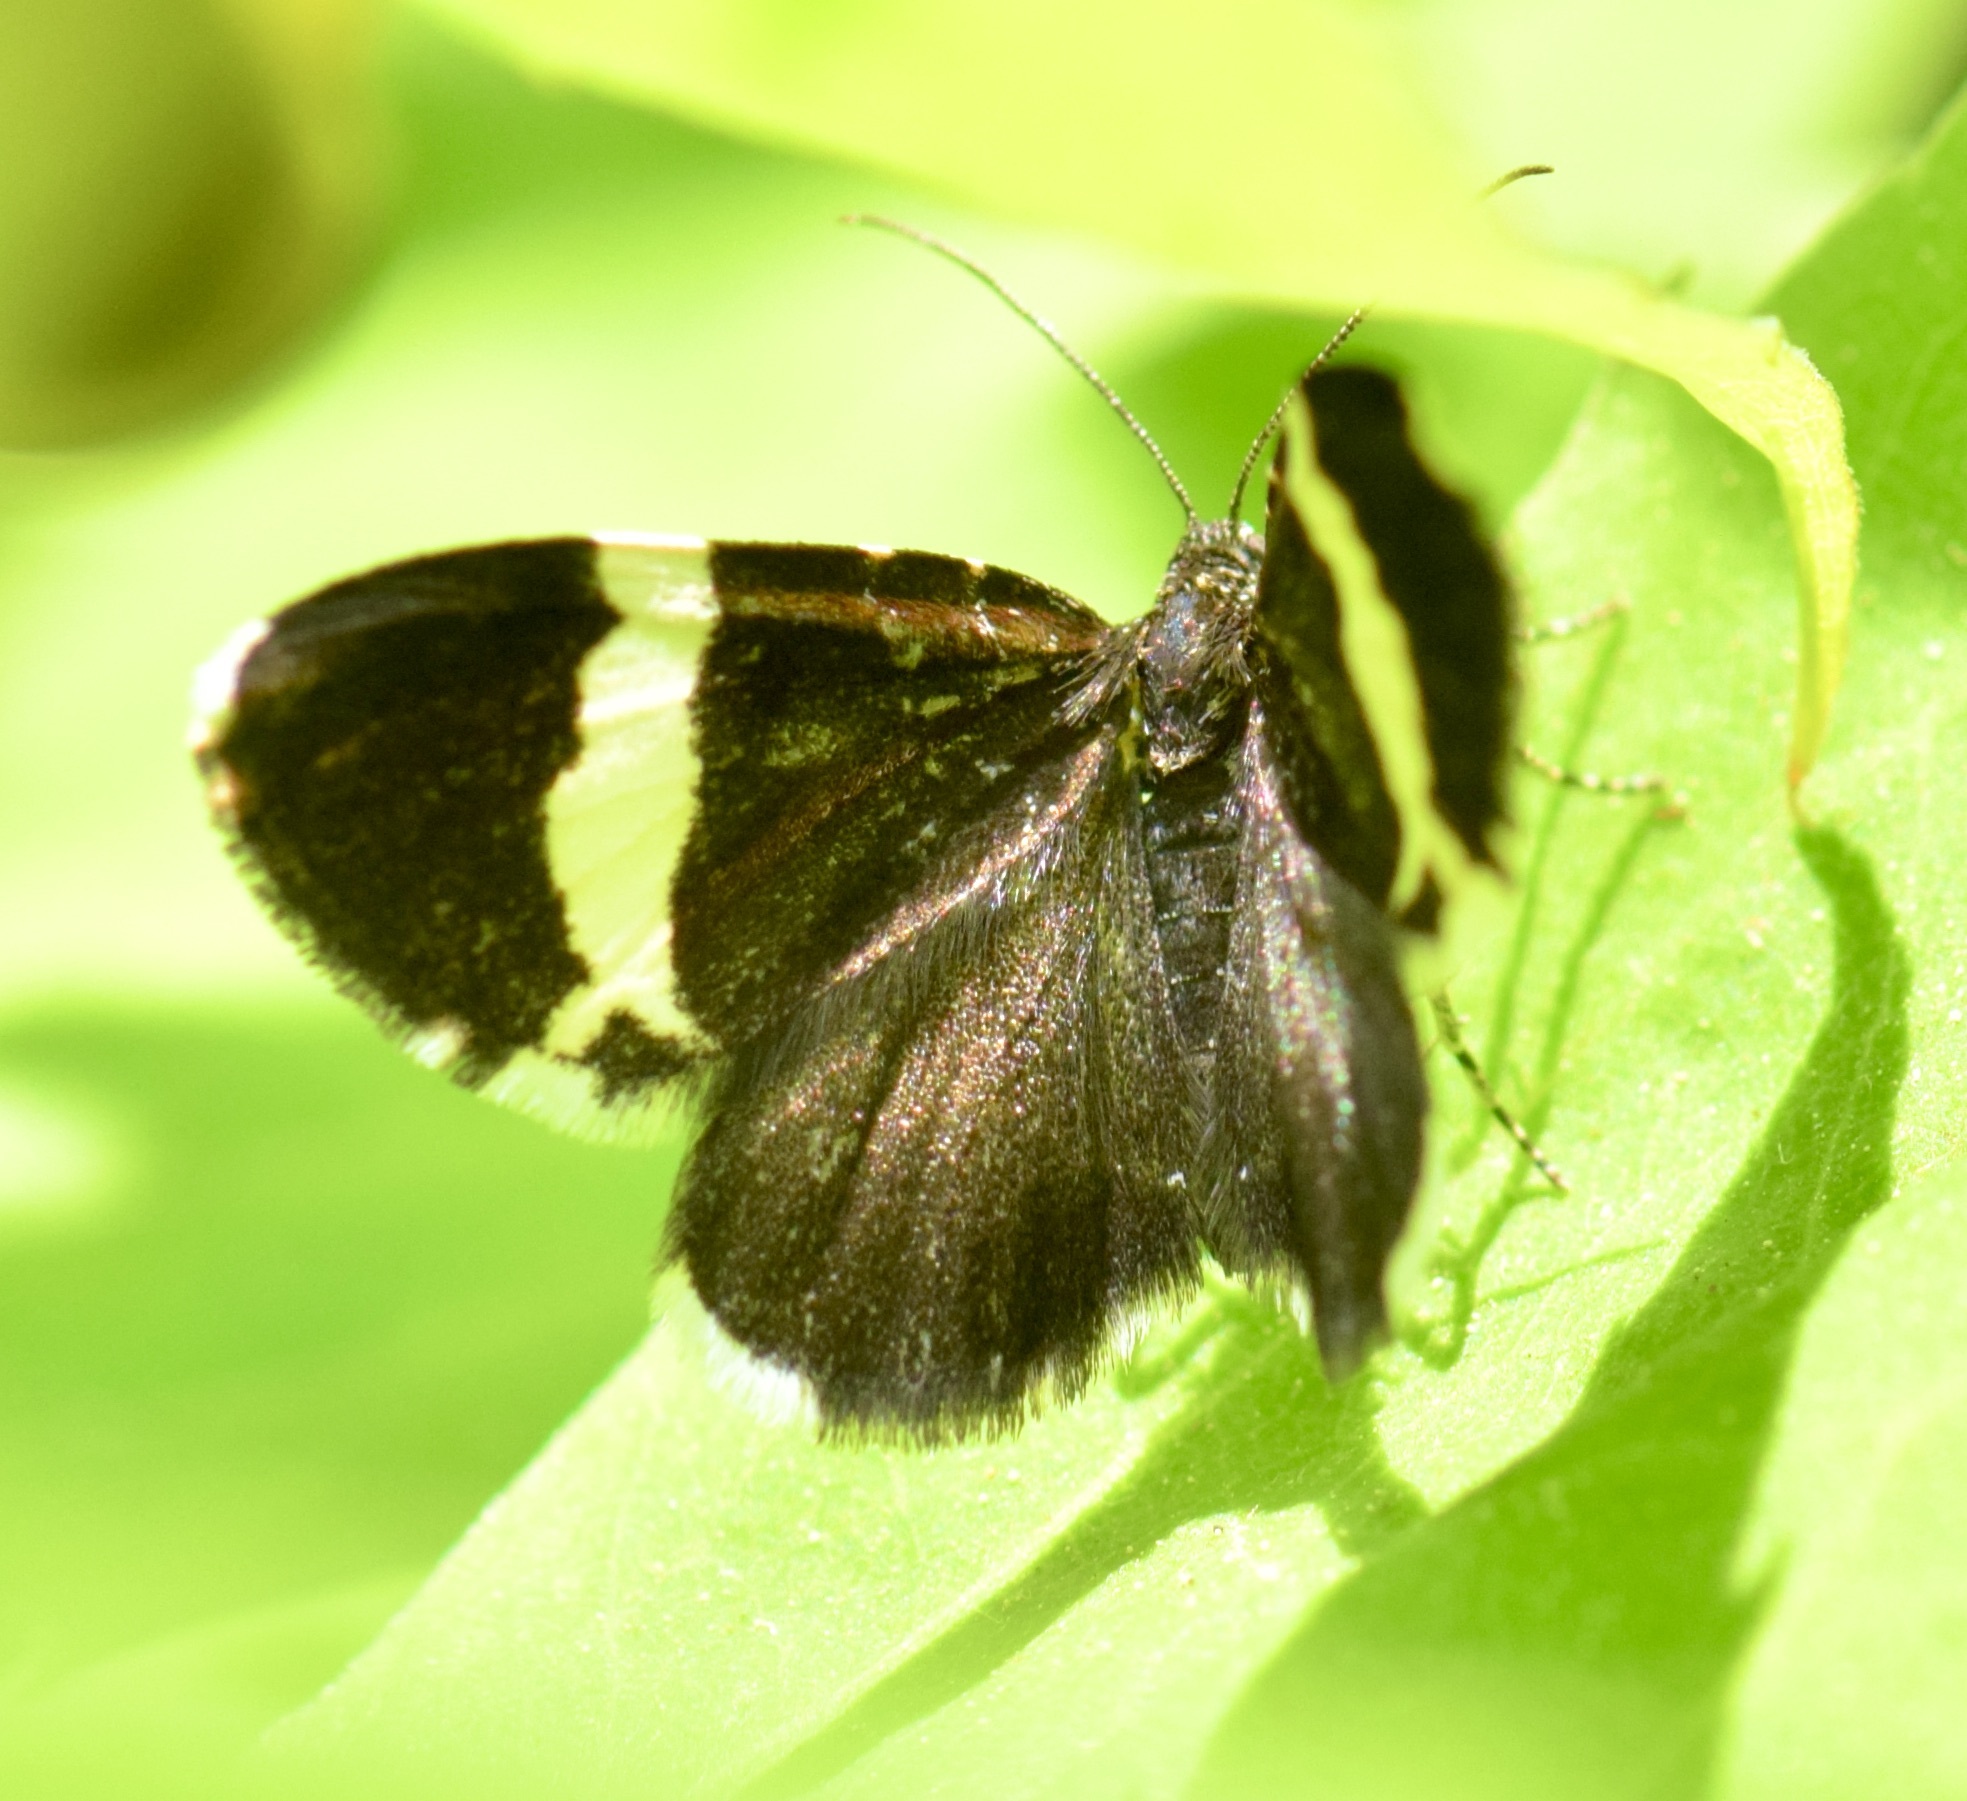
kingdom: Animalia
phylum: Arthropoda
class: Insecta
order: Lepidoptera
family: Geometridae
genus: Trichodezia
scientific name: Trichodezia albovittata
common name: White striped black
